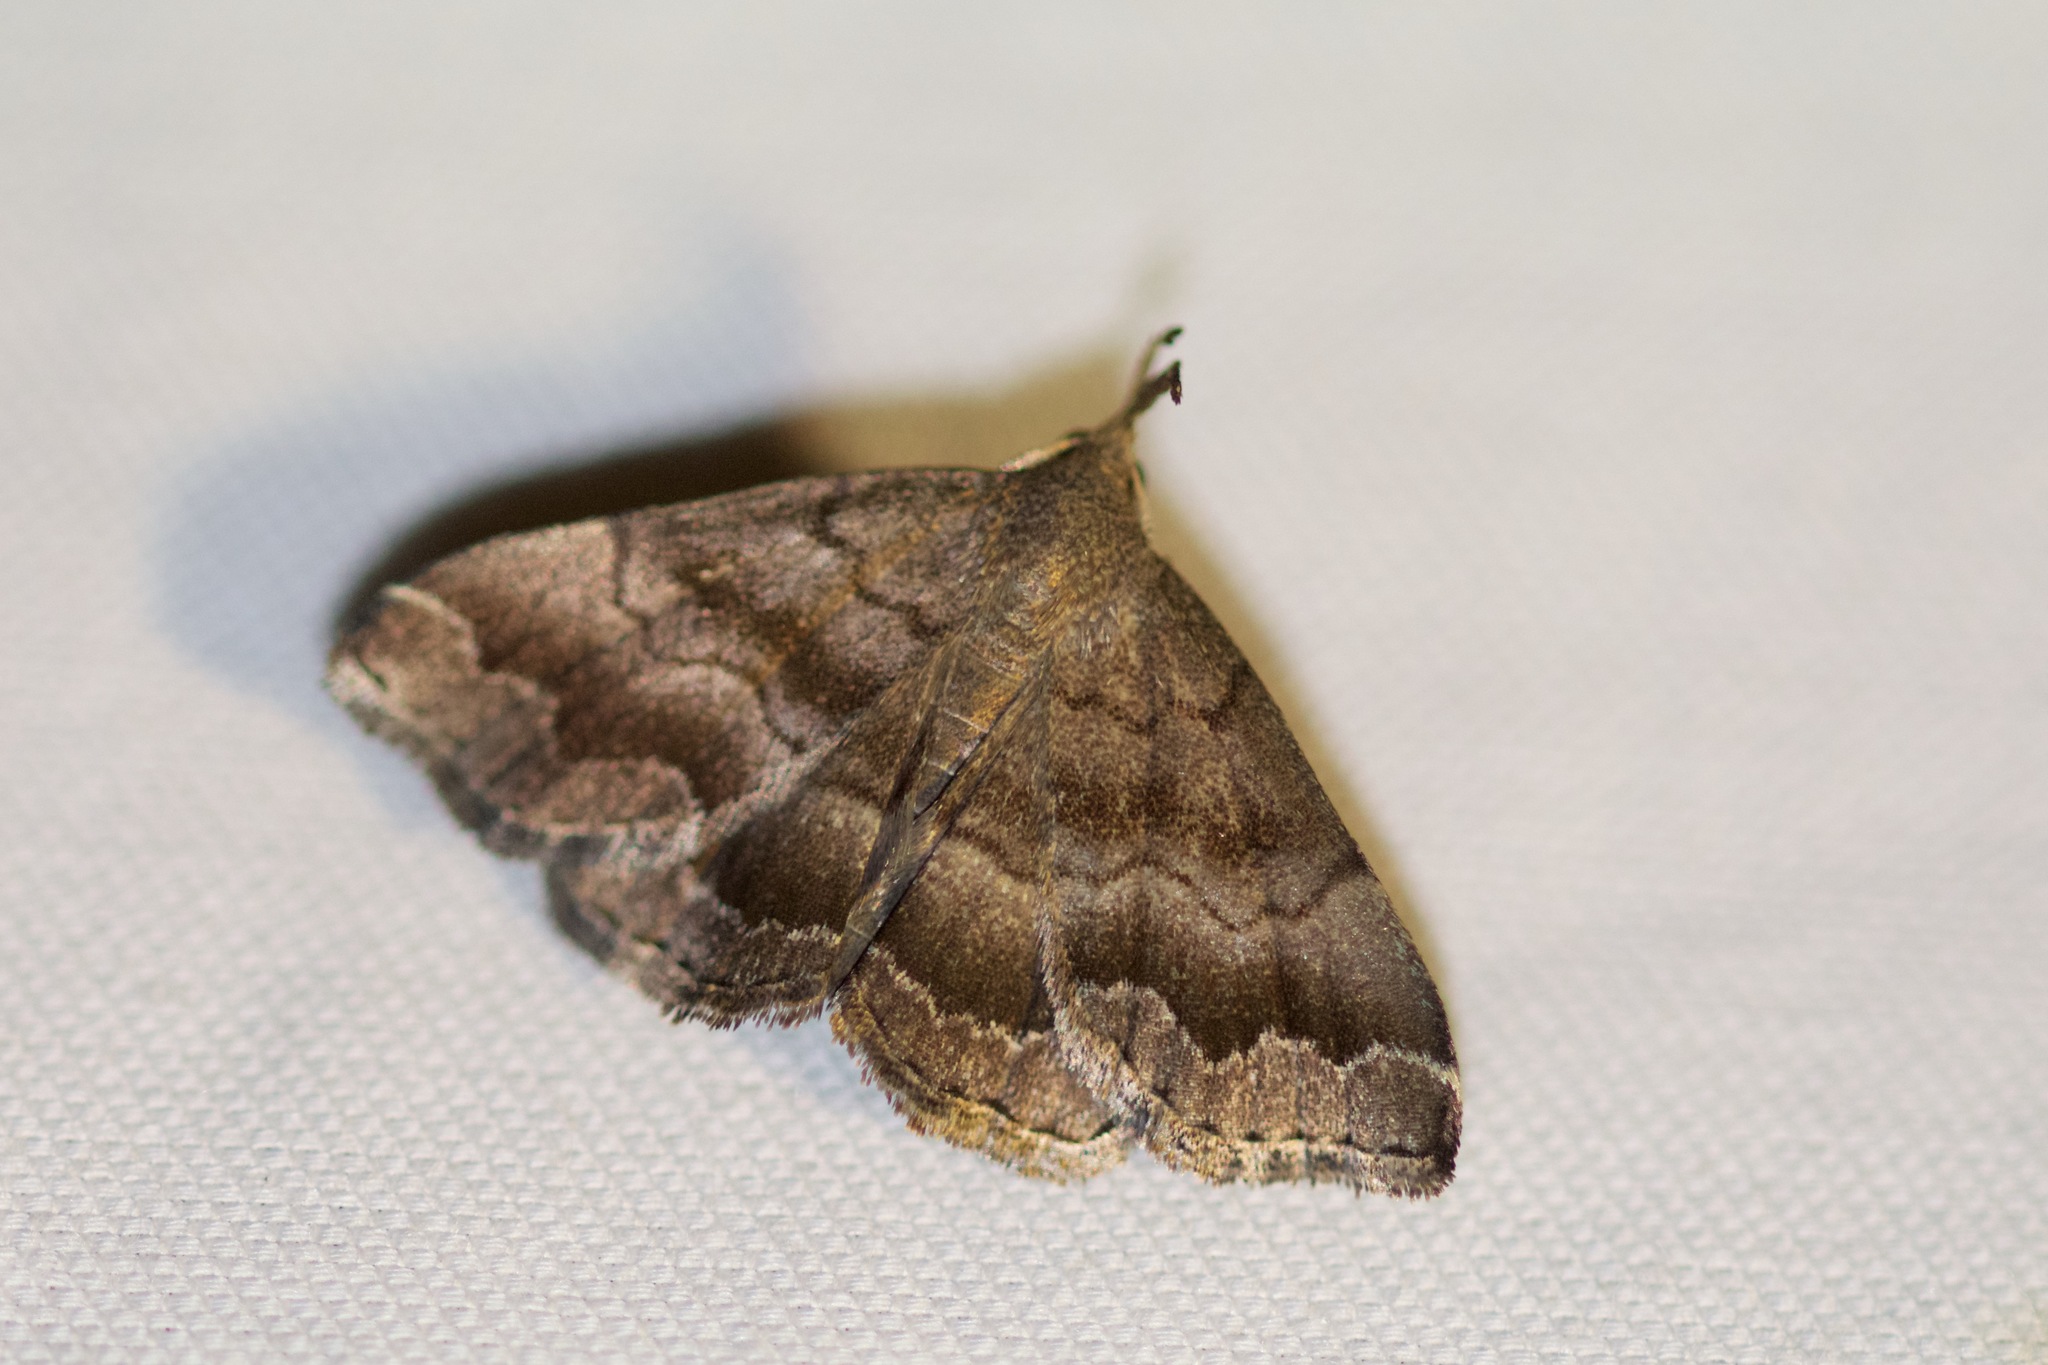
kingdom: Animalia
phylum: Arthropoda
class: Insecta
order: Lepidoptera
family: Erebidae
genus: Phalaenostola
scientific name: Phalaenostola larentioides
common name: Black-banded owlet
